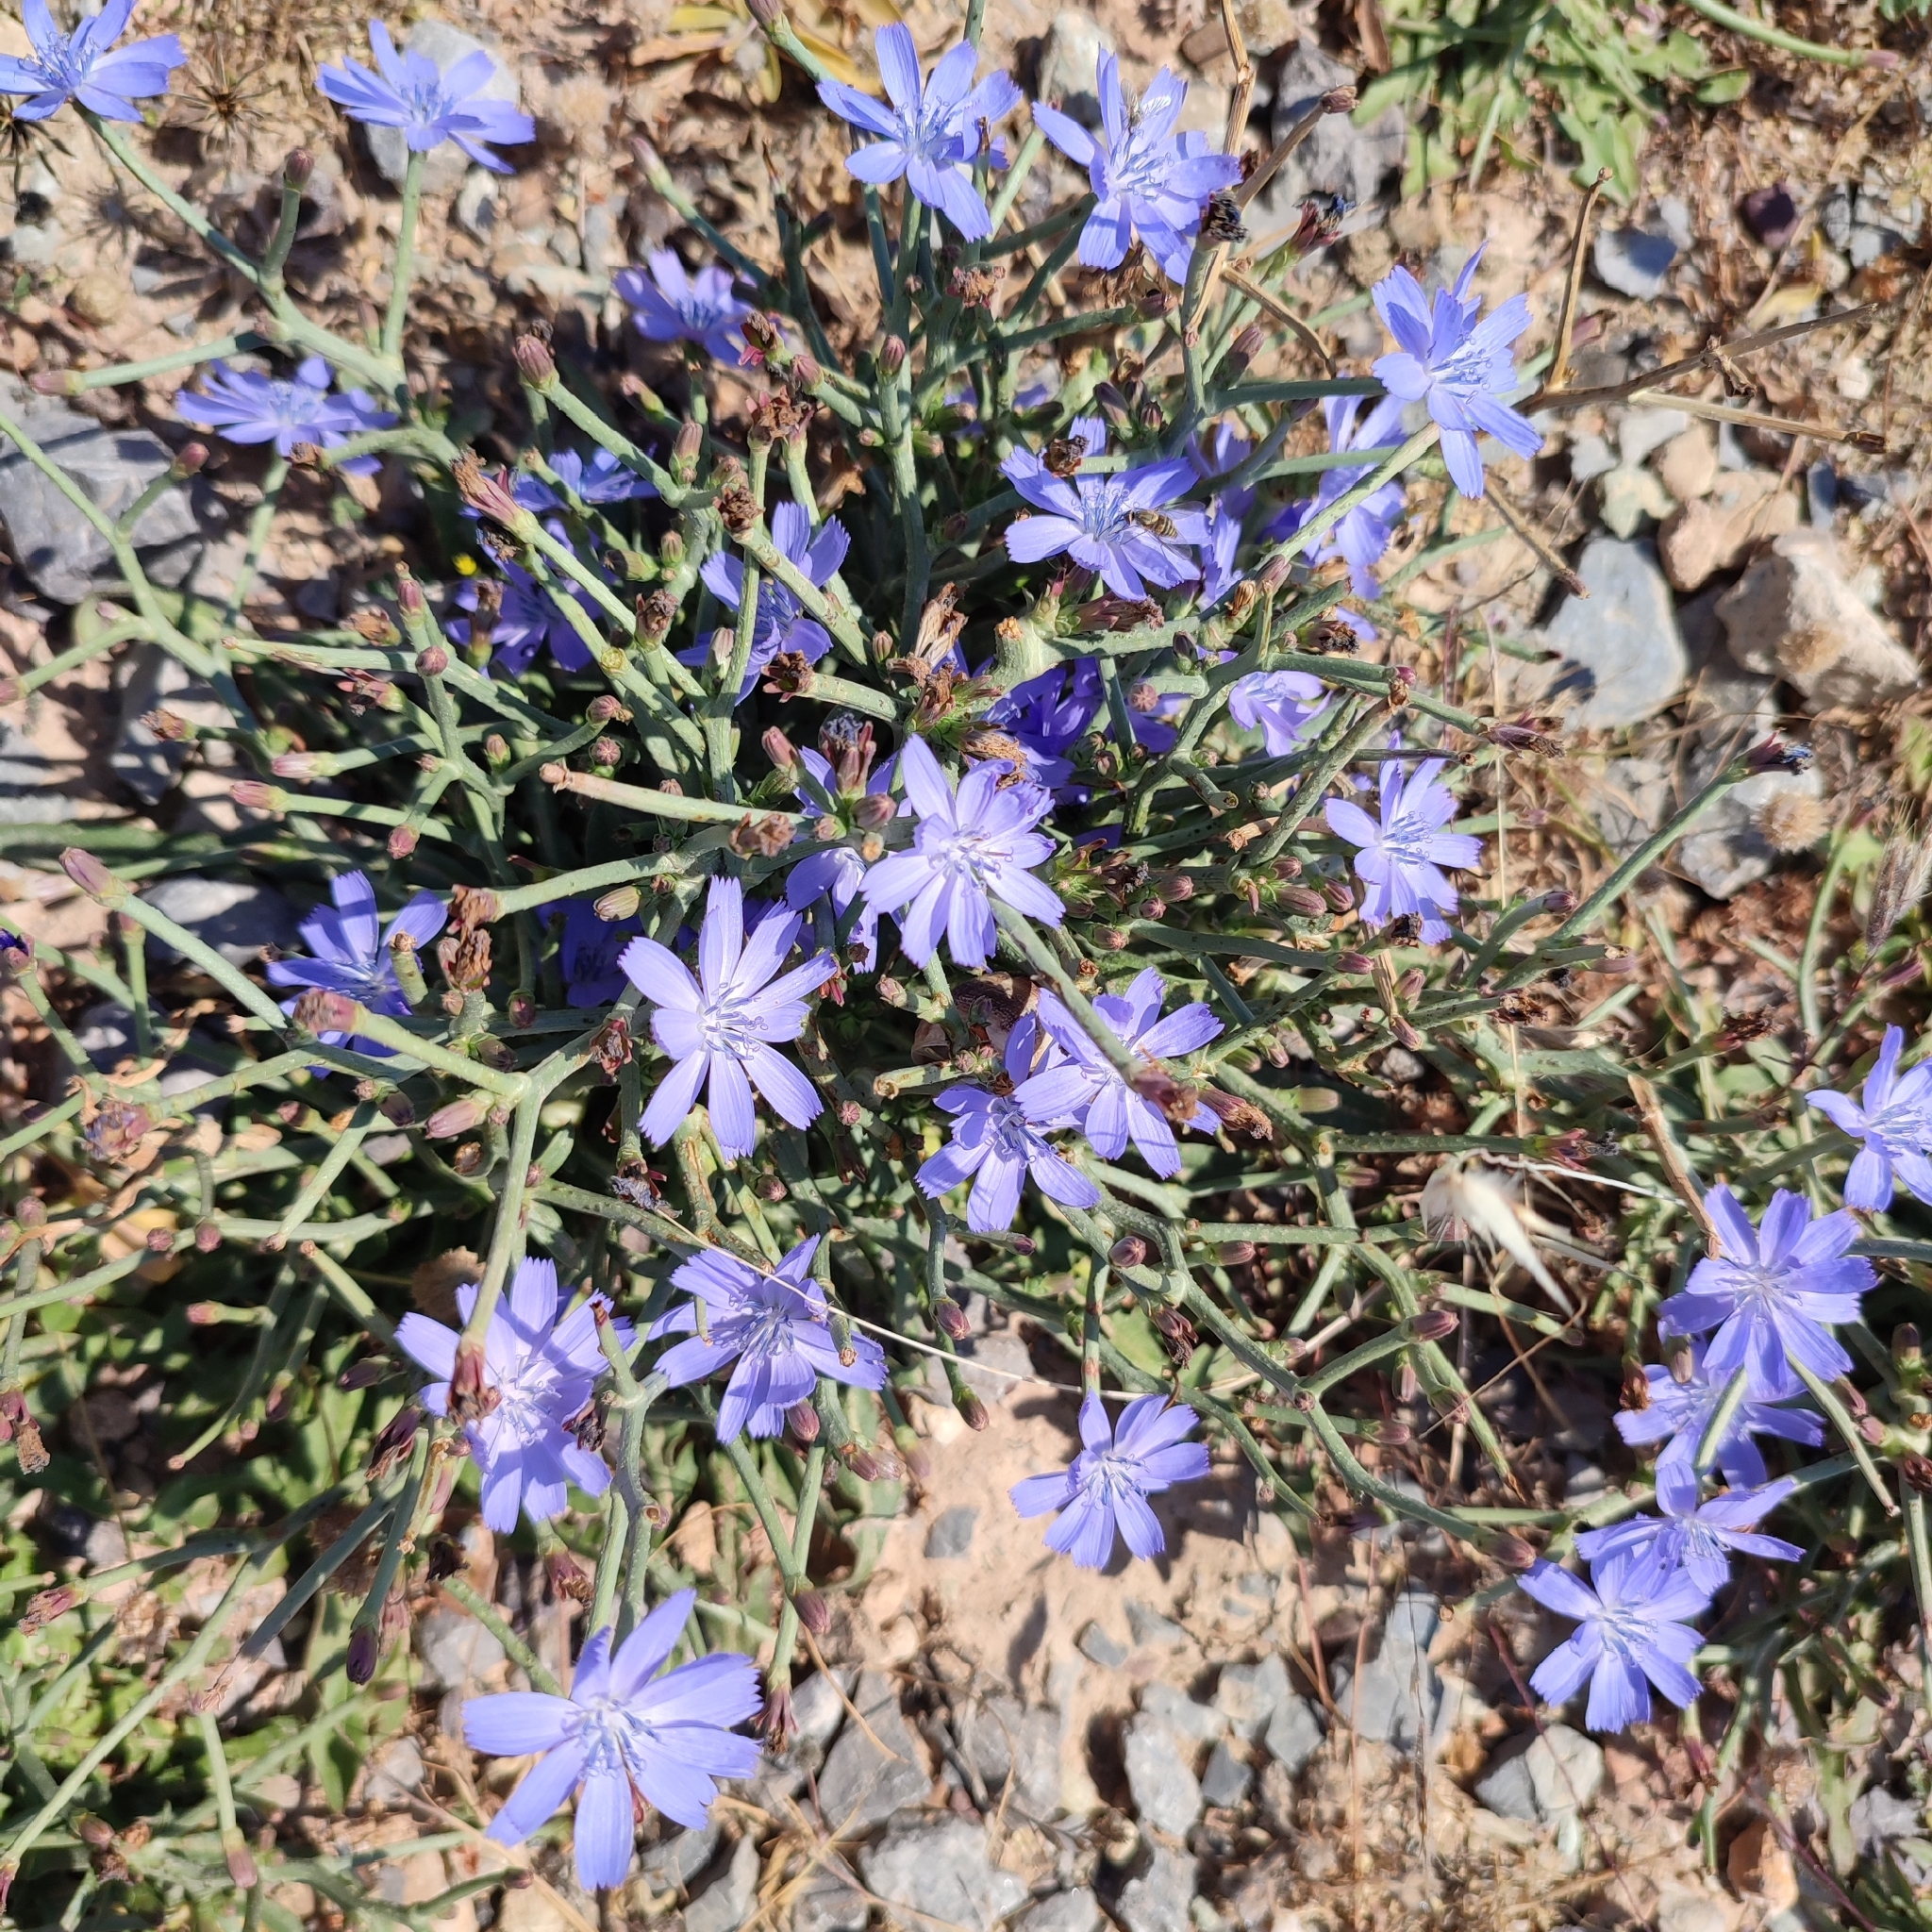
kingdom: Plantae
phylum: Tracheophyta
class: Magnoliopsida
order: Asterales
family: Asteraceae
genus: Cichorium
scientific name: Cichorium intybus
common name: Chicory
